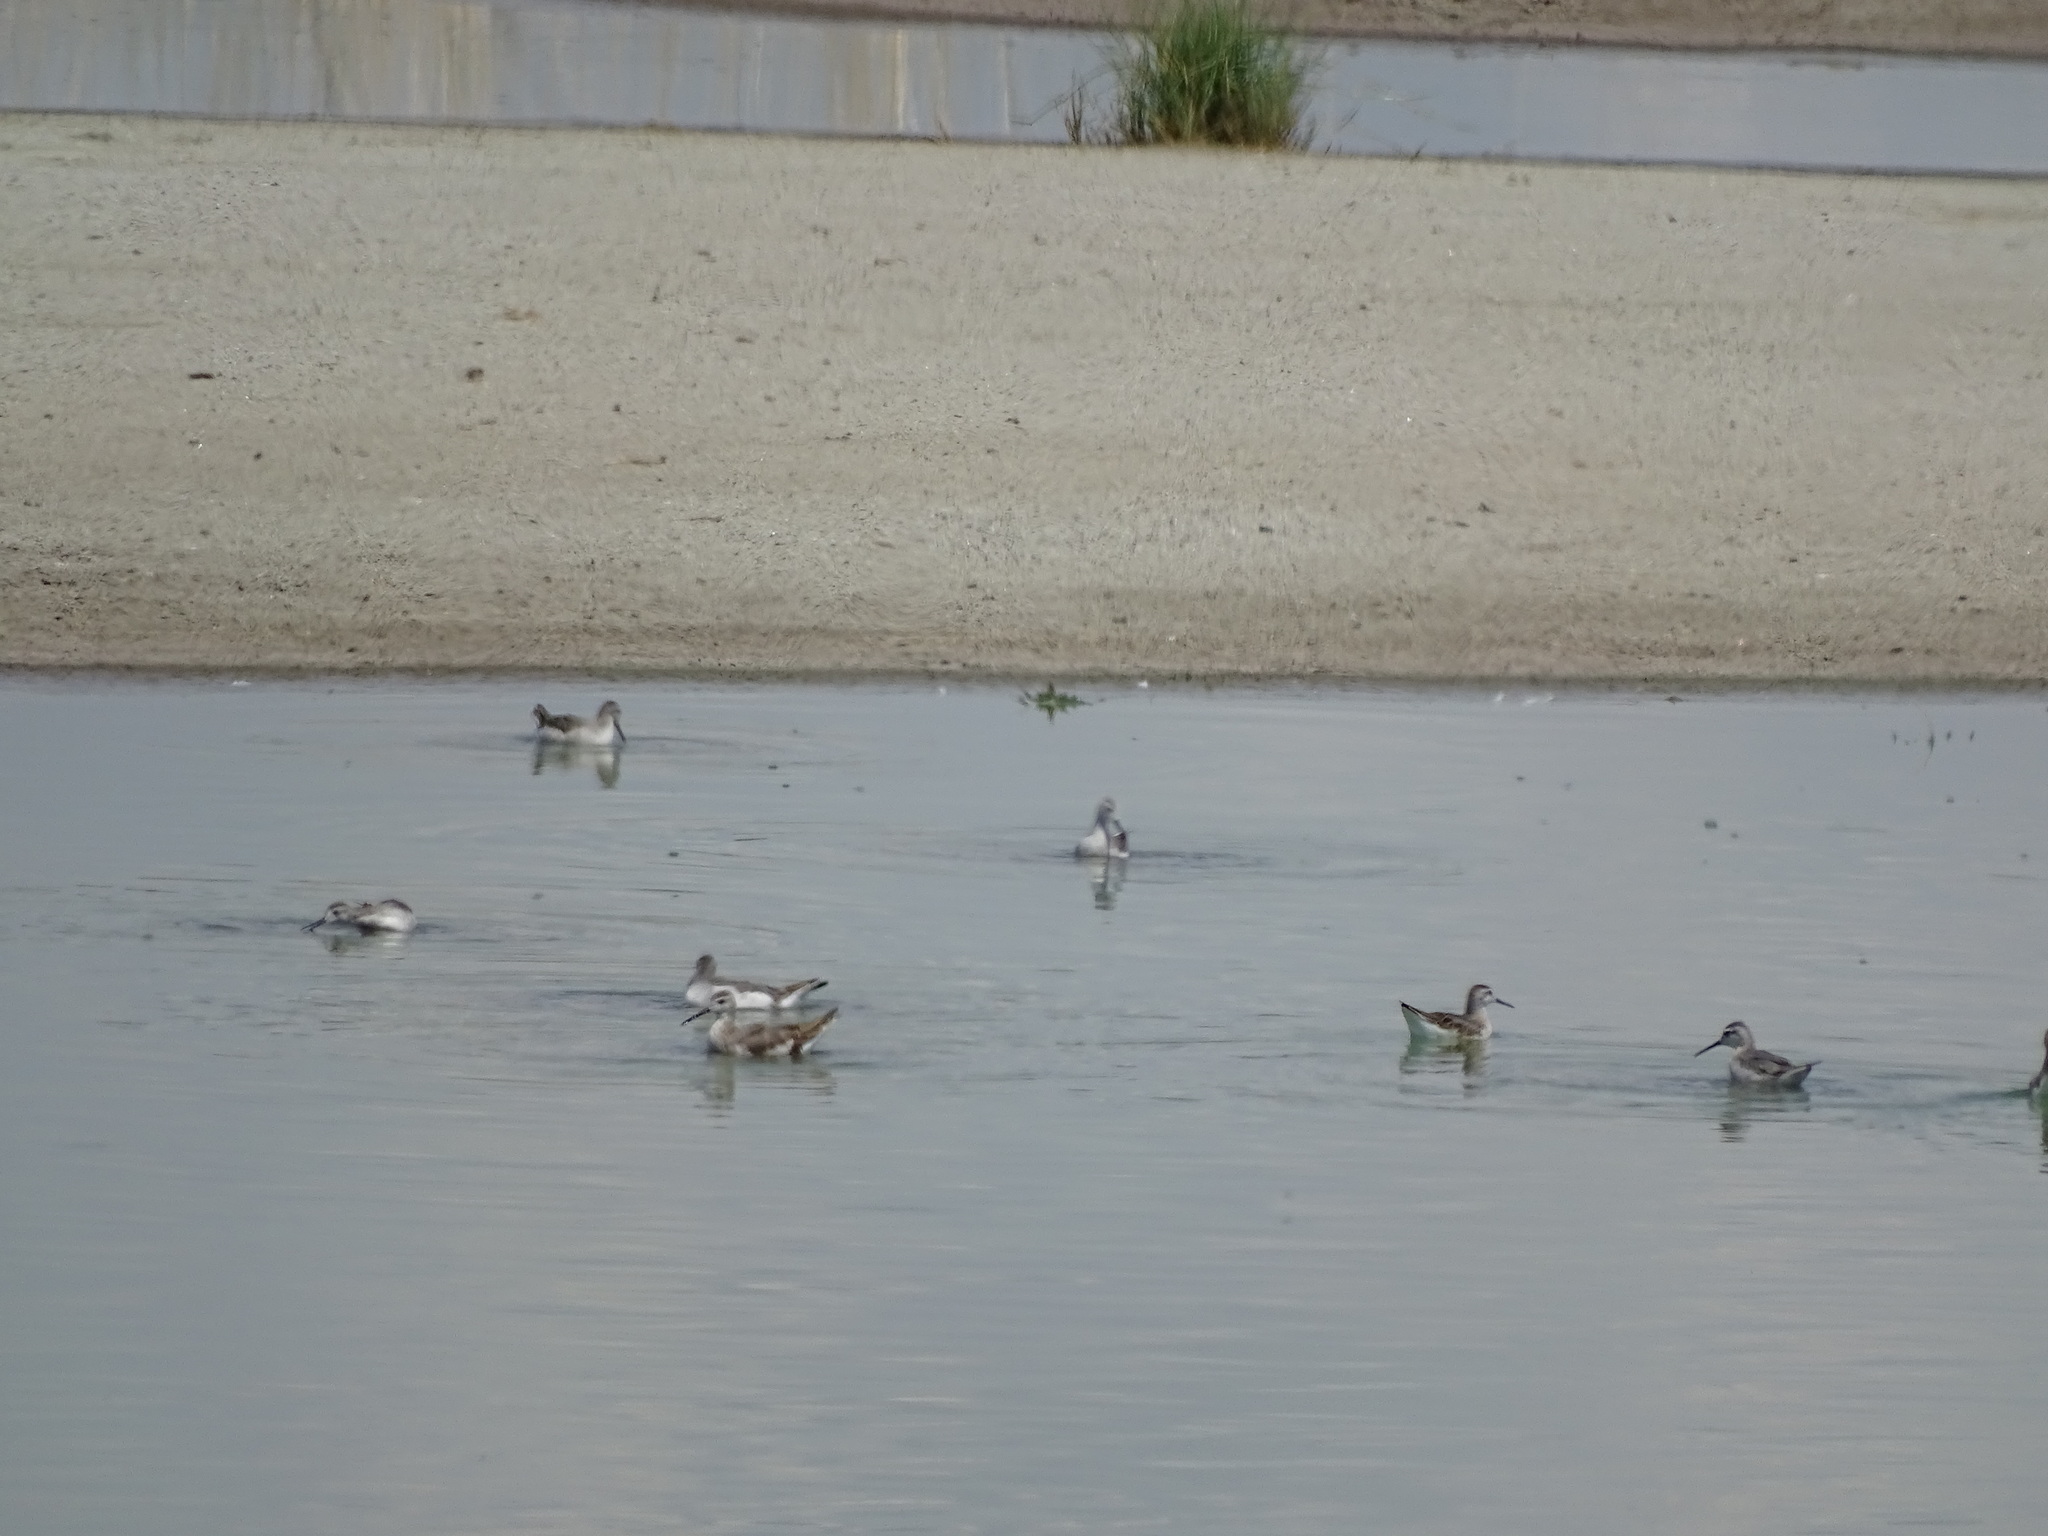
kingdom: Animalia
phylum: Chordata
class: Aves
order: Charadriiformes
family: Scolopacidae
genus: Phalaropus
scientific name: Phalaropus tricolor
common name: Wilson's phalarope
